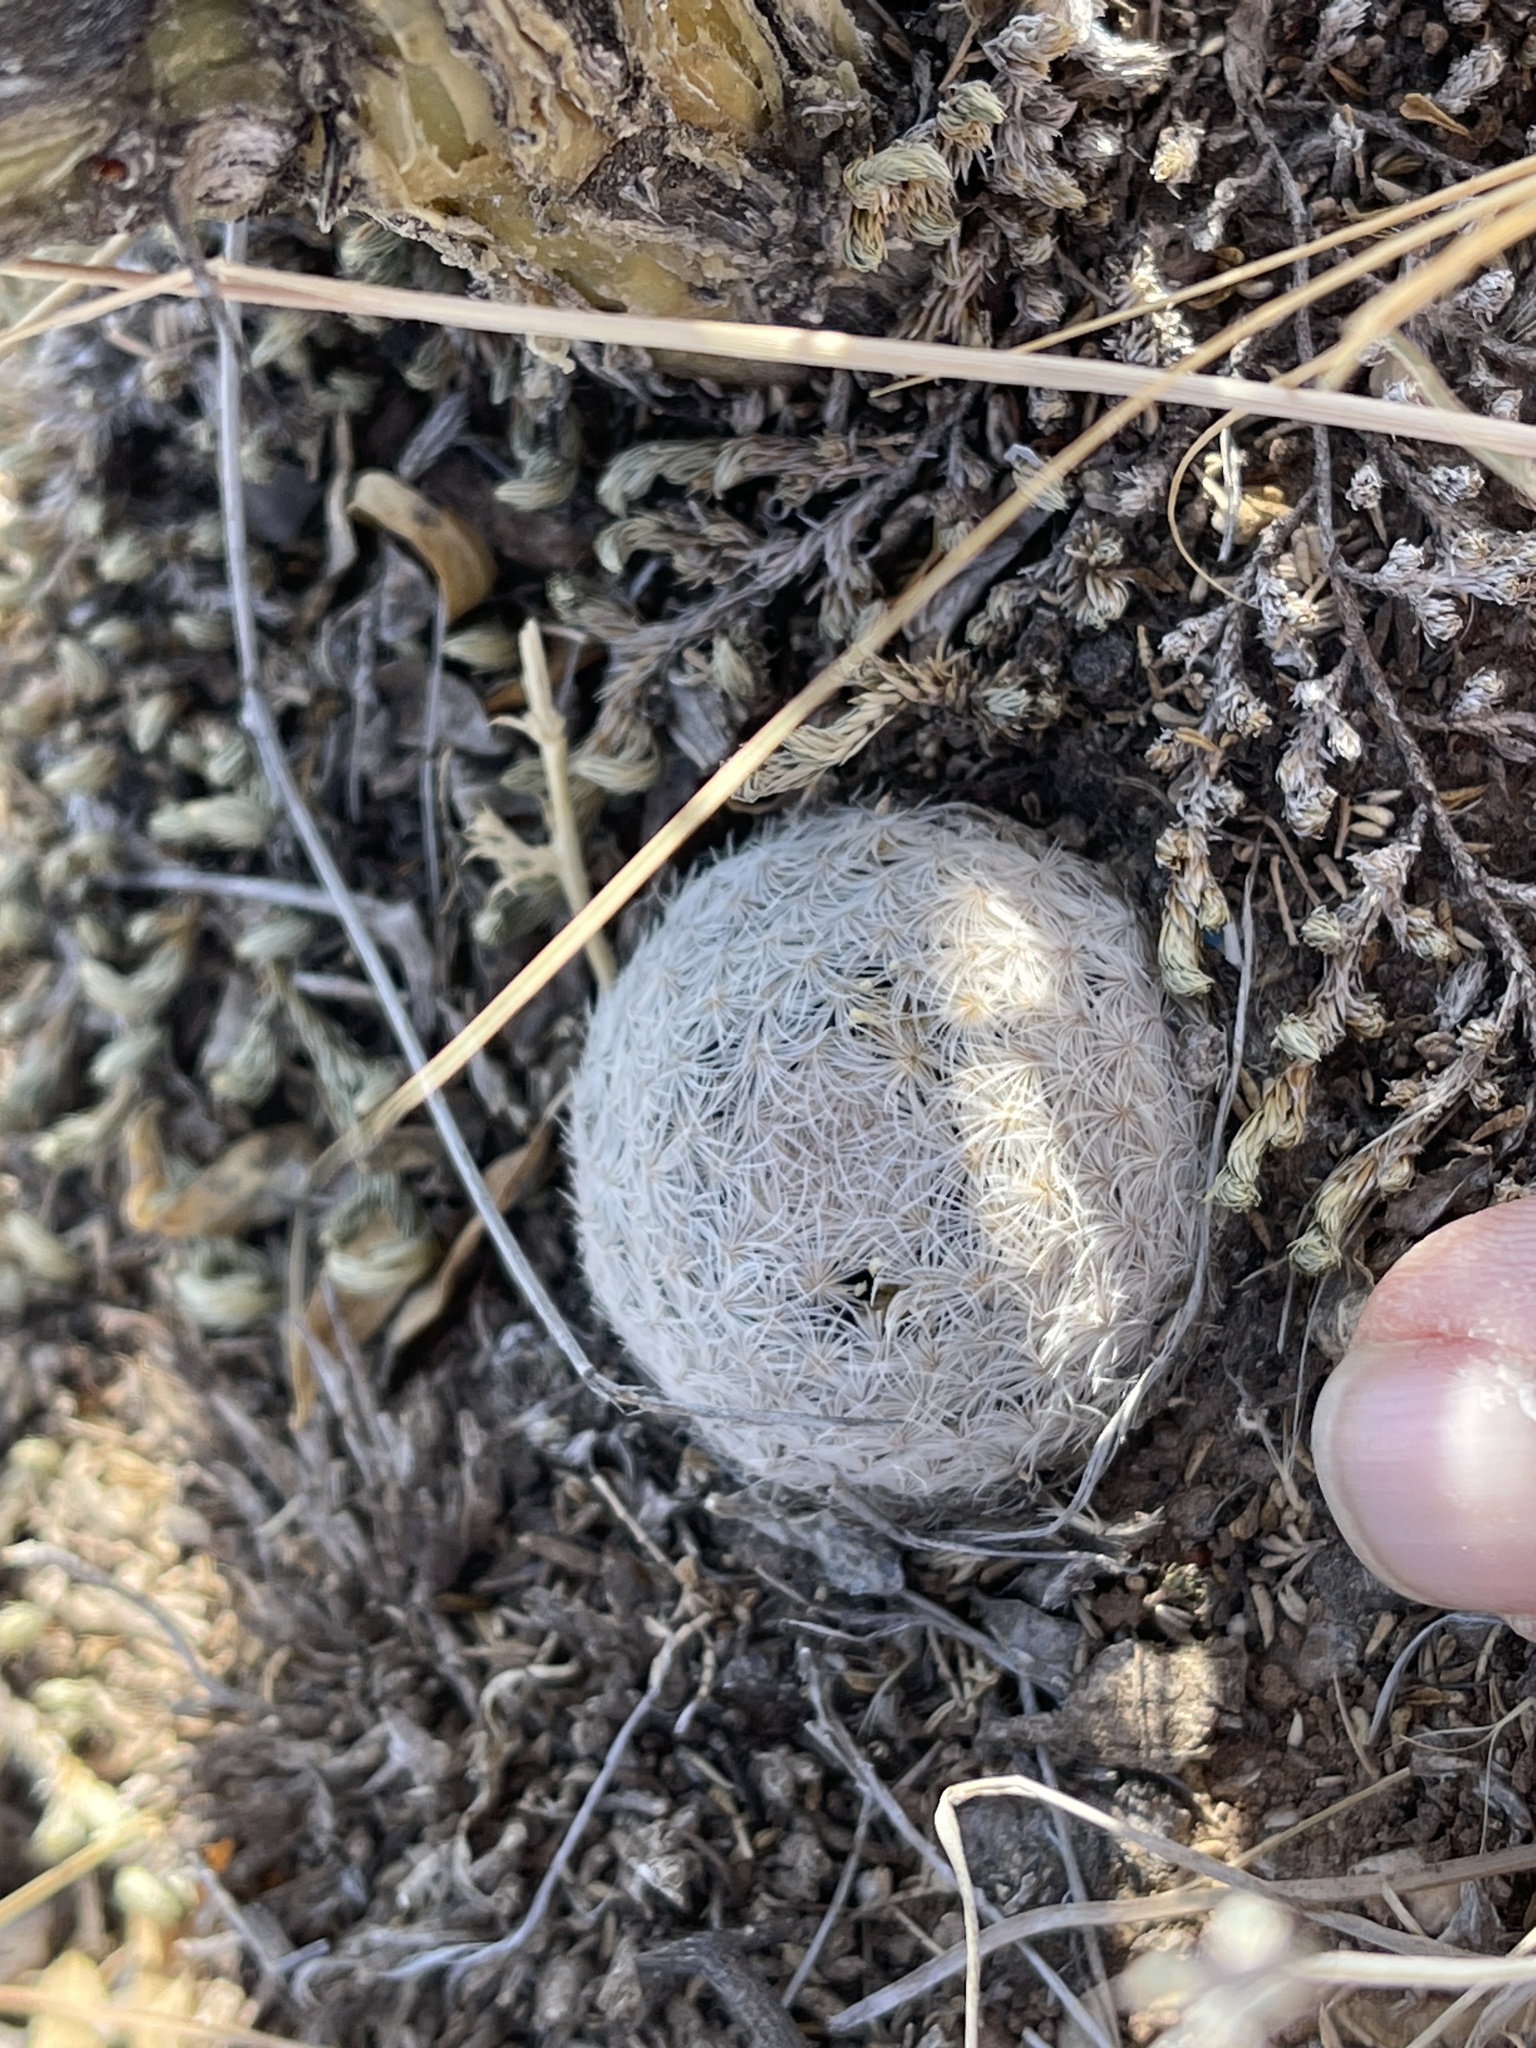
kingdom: Plantae
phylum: Tracheophyta
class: Magnoliopsida
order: Caryophyllales
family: Cactaceae
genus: Mammillaria
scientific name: Mammillaria lasiacantha
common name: Lace-spine nipple cactus
